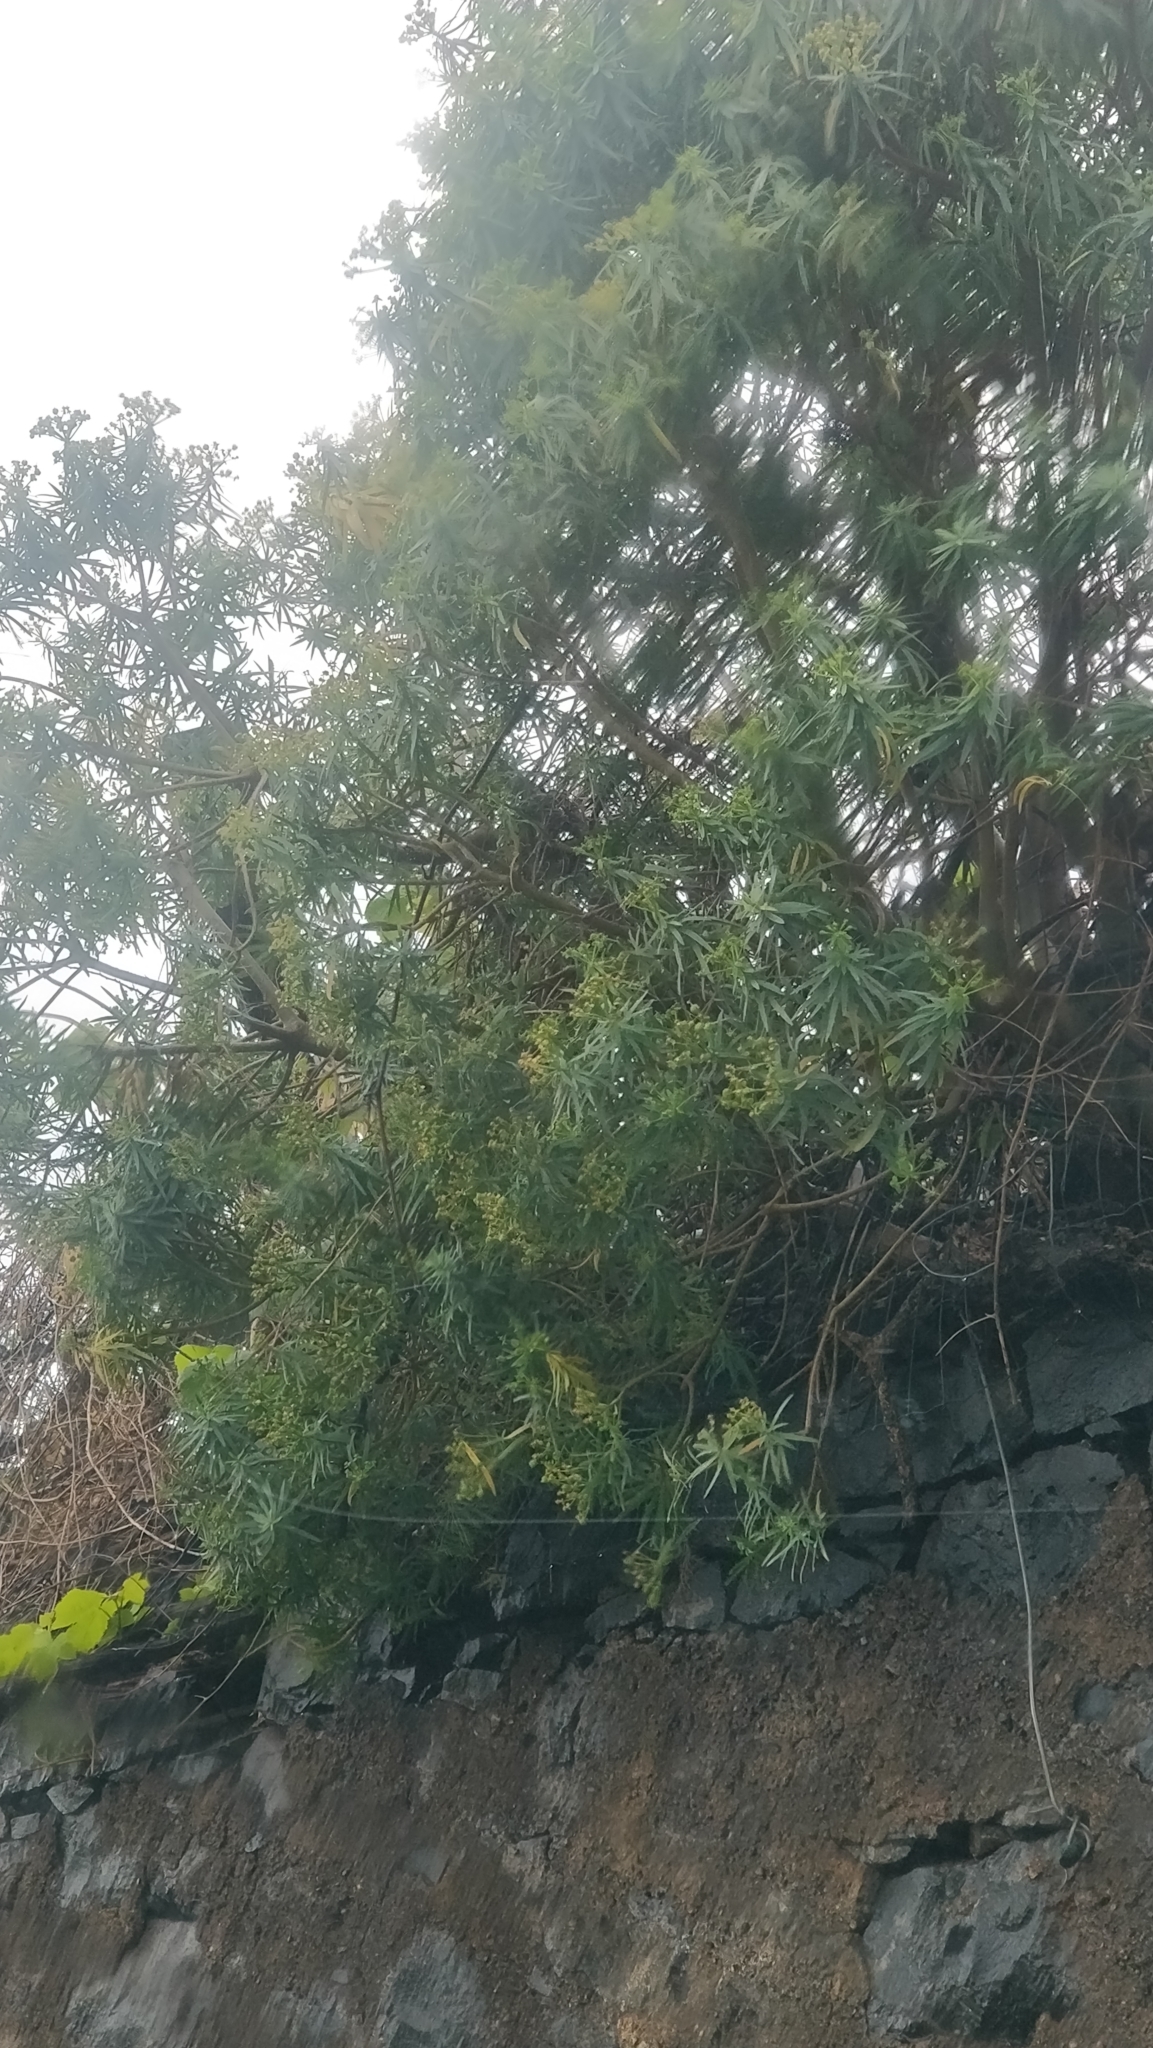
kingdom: Plantae
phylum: Tracheophyta
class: Magnoliopsida
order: Malpighiales
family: Euphorbiaceae
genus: Euphorbia
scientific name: Euphorbia piscatoria
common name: Fish-stunning spurge
